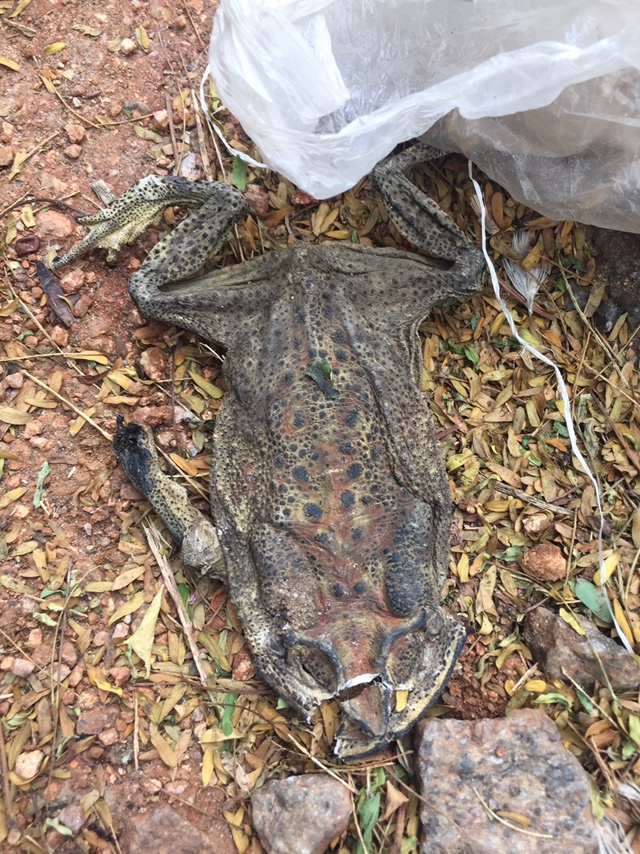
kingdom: Animalia
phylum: Chordata
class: Amphibia
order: Anura
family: Bufonidae
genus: Duttaphrynus
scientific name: Duttaphrynus melanostictus
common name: Common sunda toad
